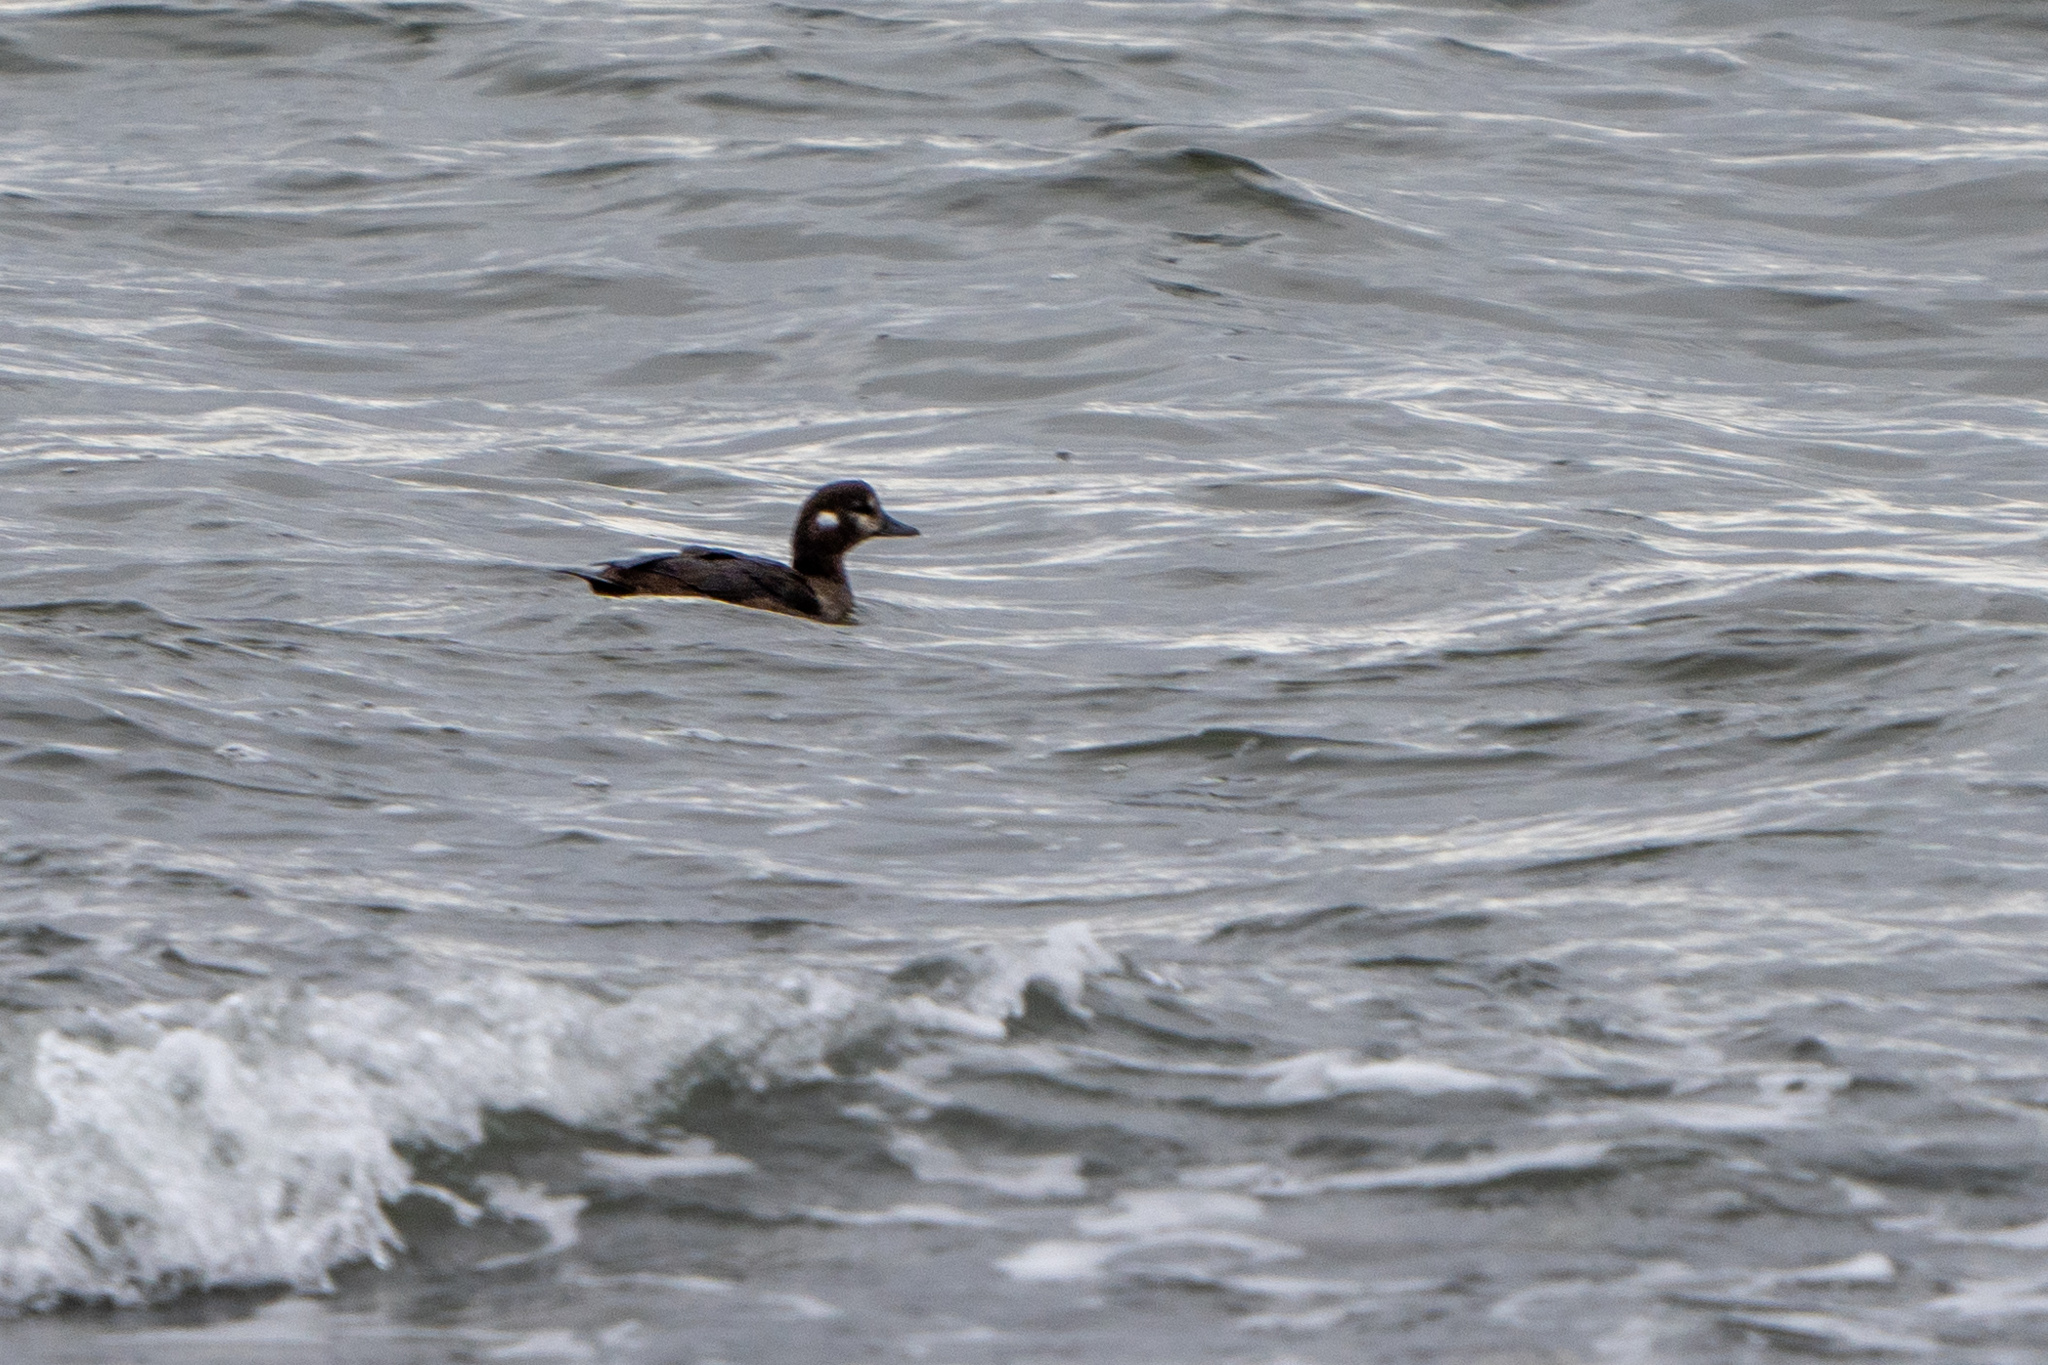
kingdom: Animalia
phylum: Chordata
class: Aves
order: Anseriformes
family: Anatidae
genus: Histrionicus
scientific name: Histrionicus histrionicus
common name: Harlequin duck
